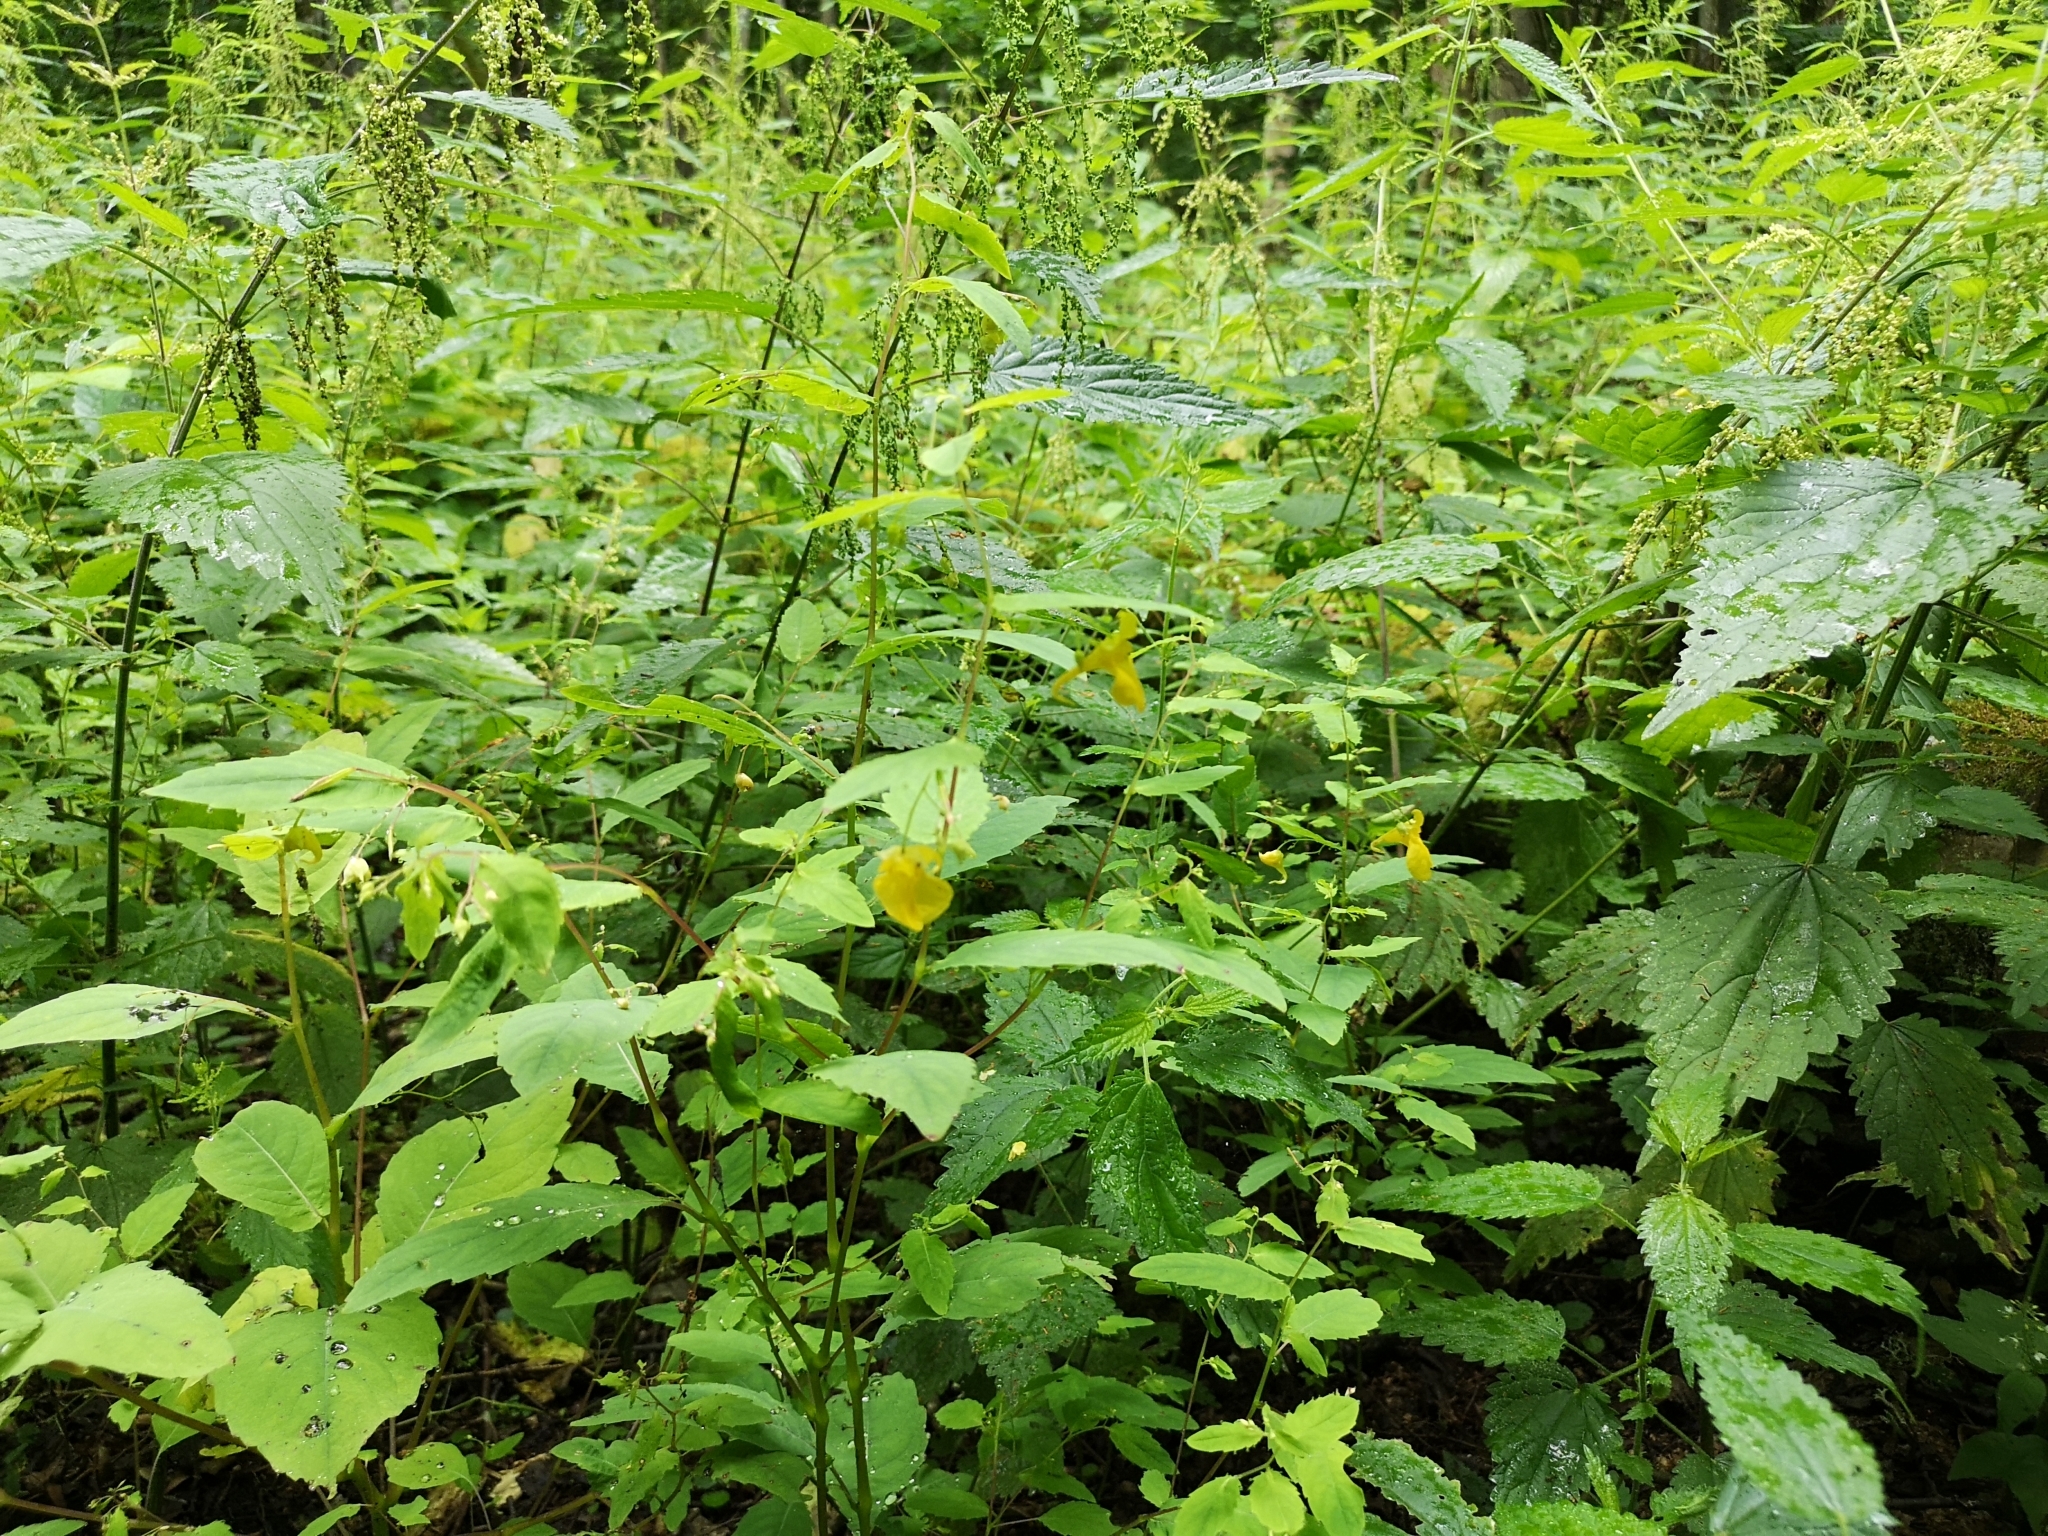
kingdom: Plantae
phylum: Tracheophyta
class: Magnoliopsida
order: Ericales
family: Balsaminaceae
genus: Impatiens
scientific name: Impatiens noli-tangere
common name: Touch-me-not balsam
